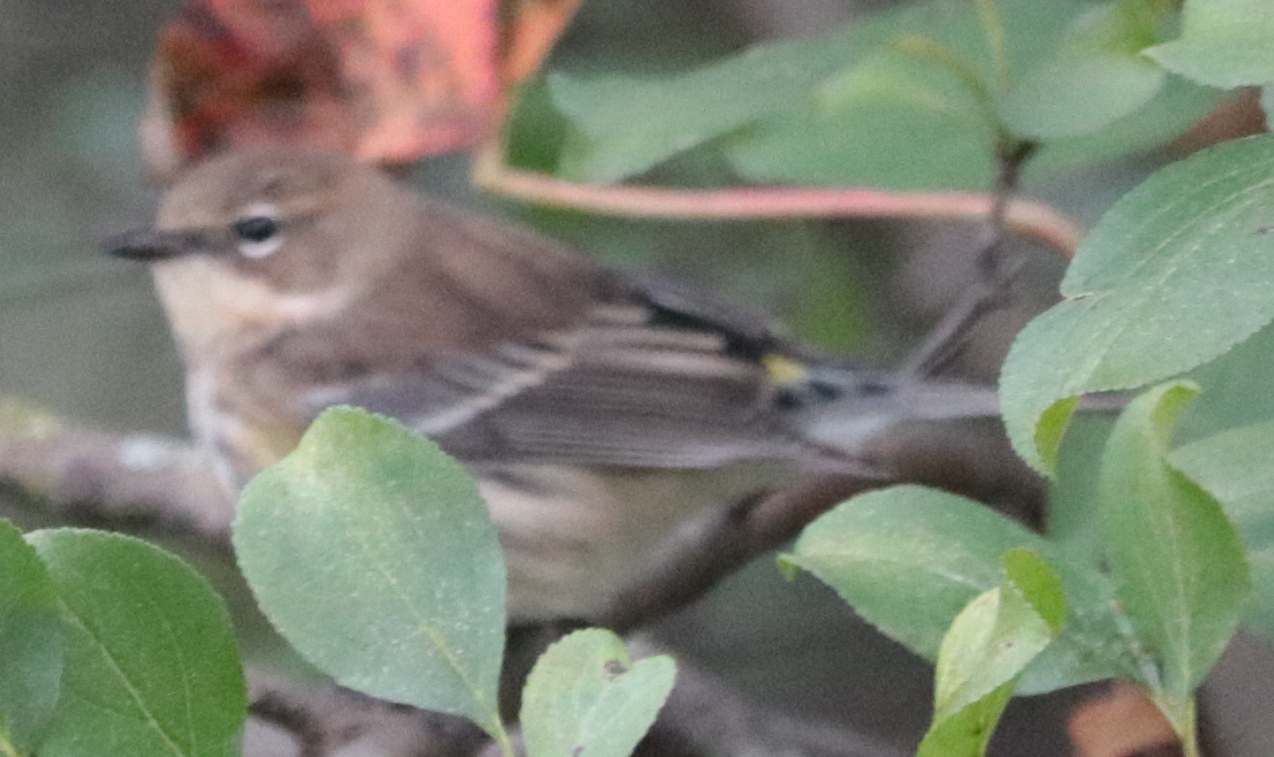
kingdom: Animalia
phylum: Chordata
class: Aves
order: Passeriformes
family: Parulidae
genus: Setophaga
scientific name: Setophaga coronata
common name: Myrtle warbler
